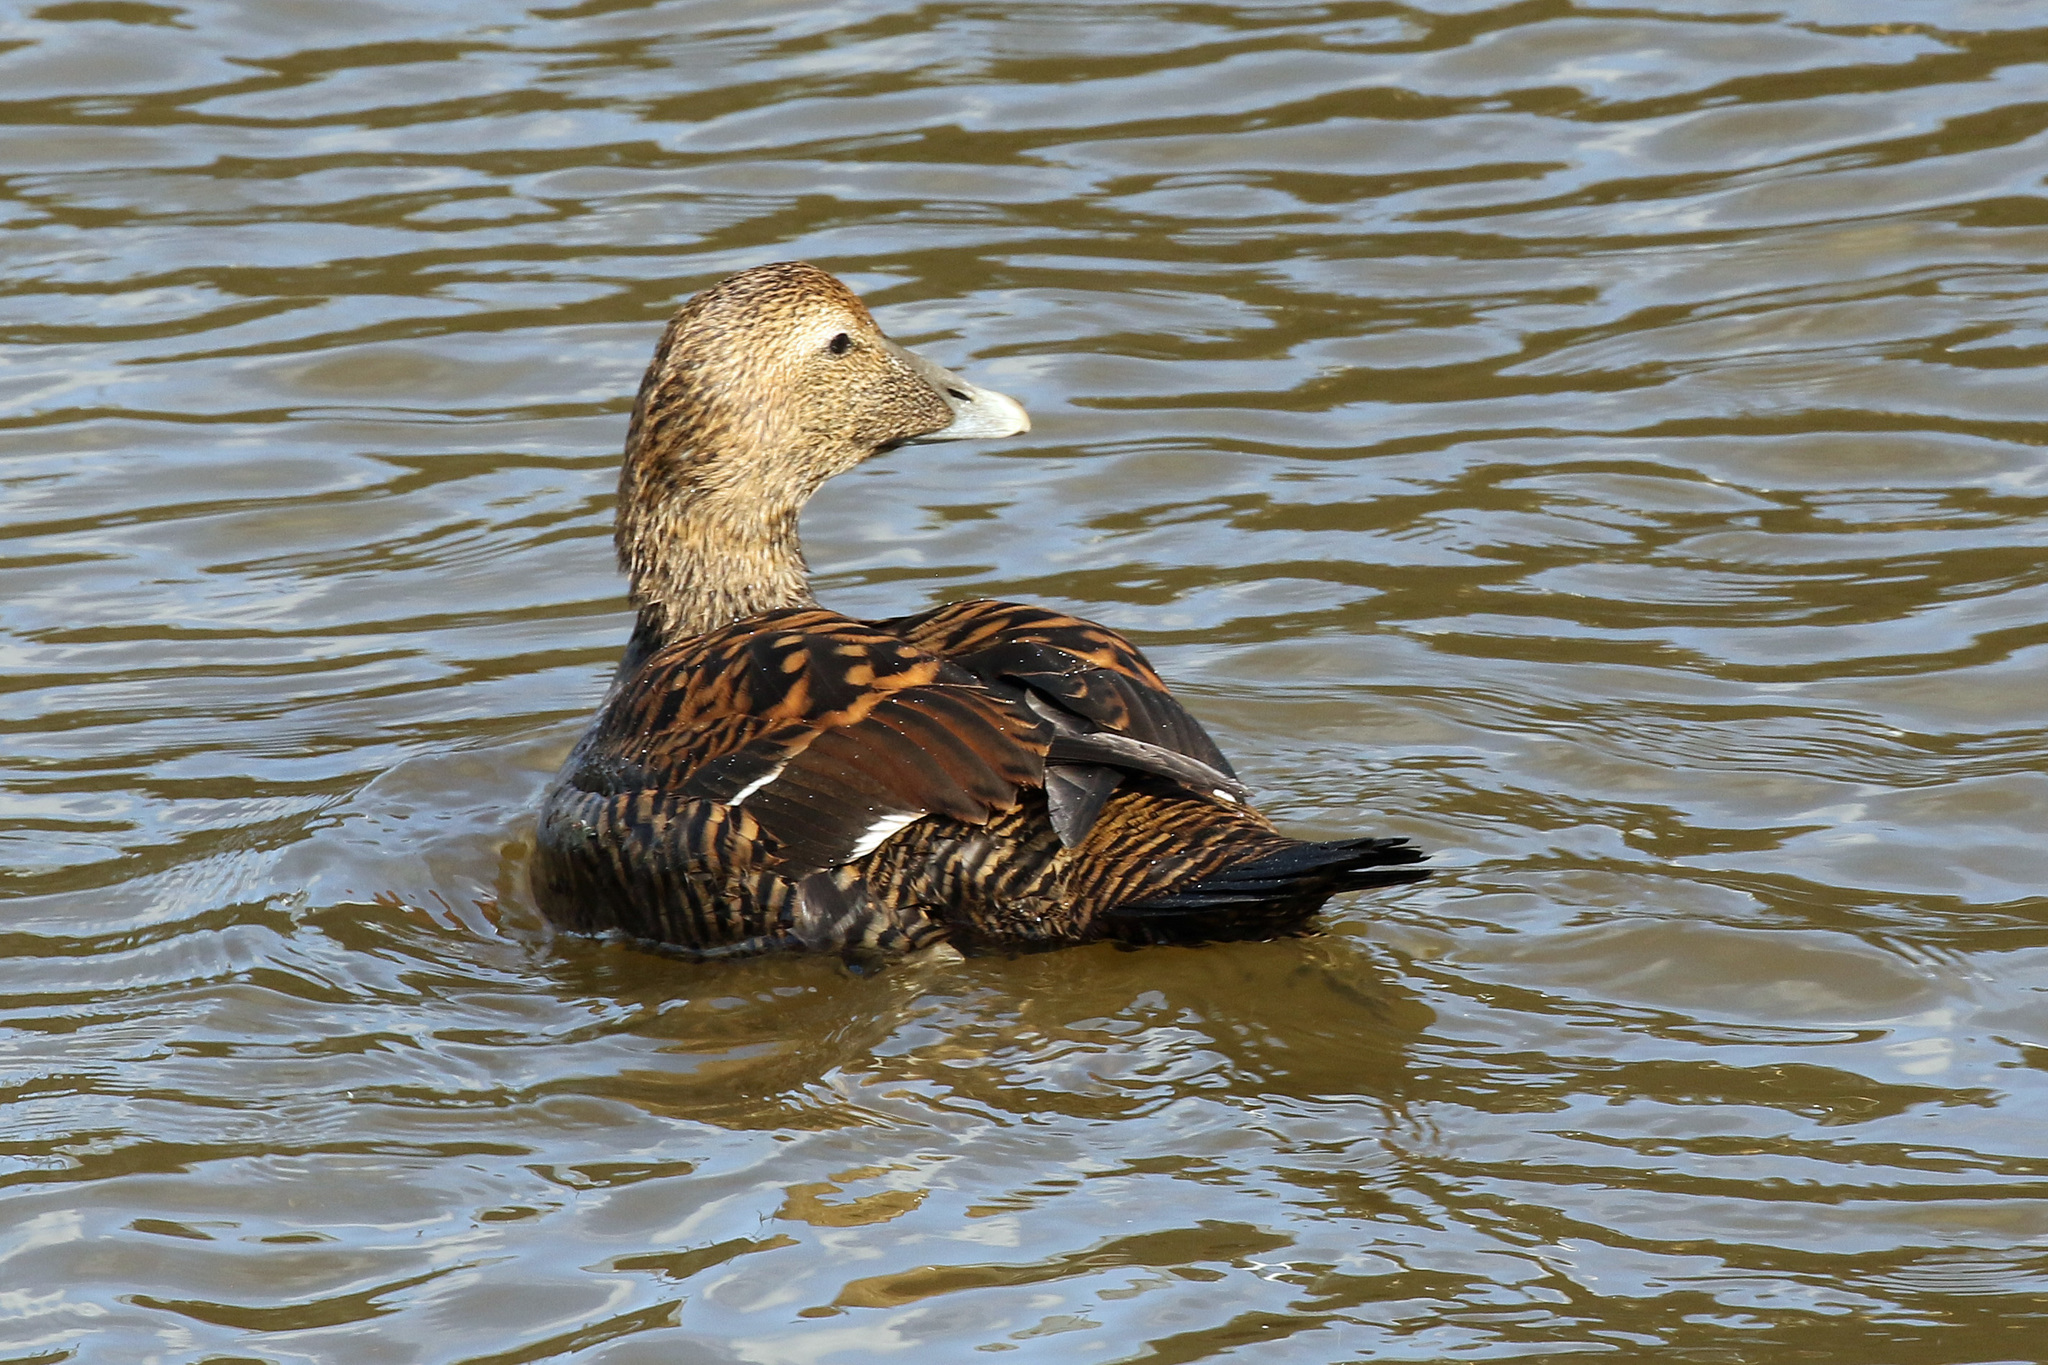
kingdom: Animalia
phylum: Chordata
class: Aves
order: Anseriformes
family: Anatidae
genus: Somateria
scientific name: Somateria mollissima
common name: Common eider
